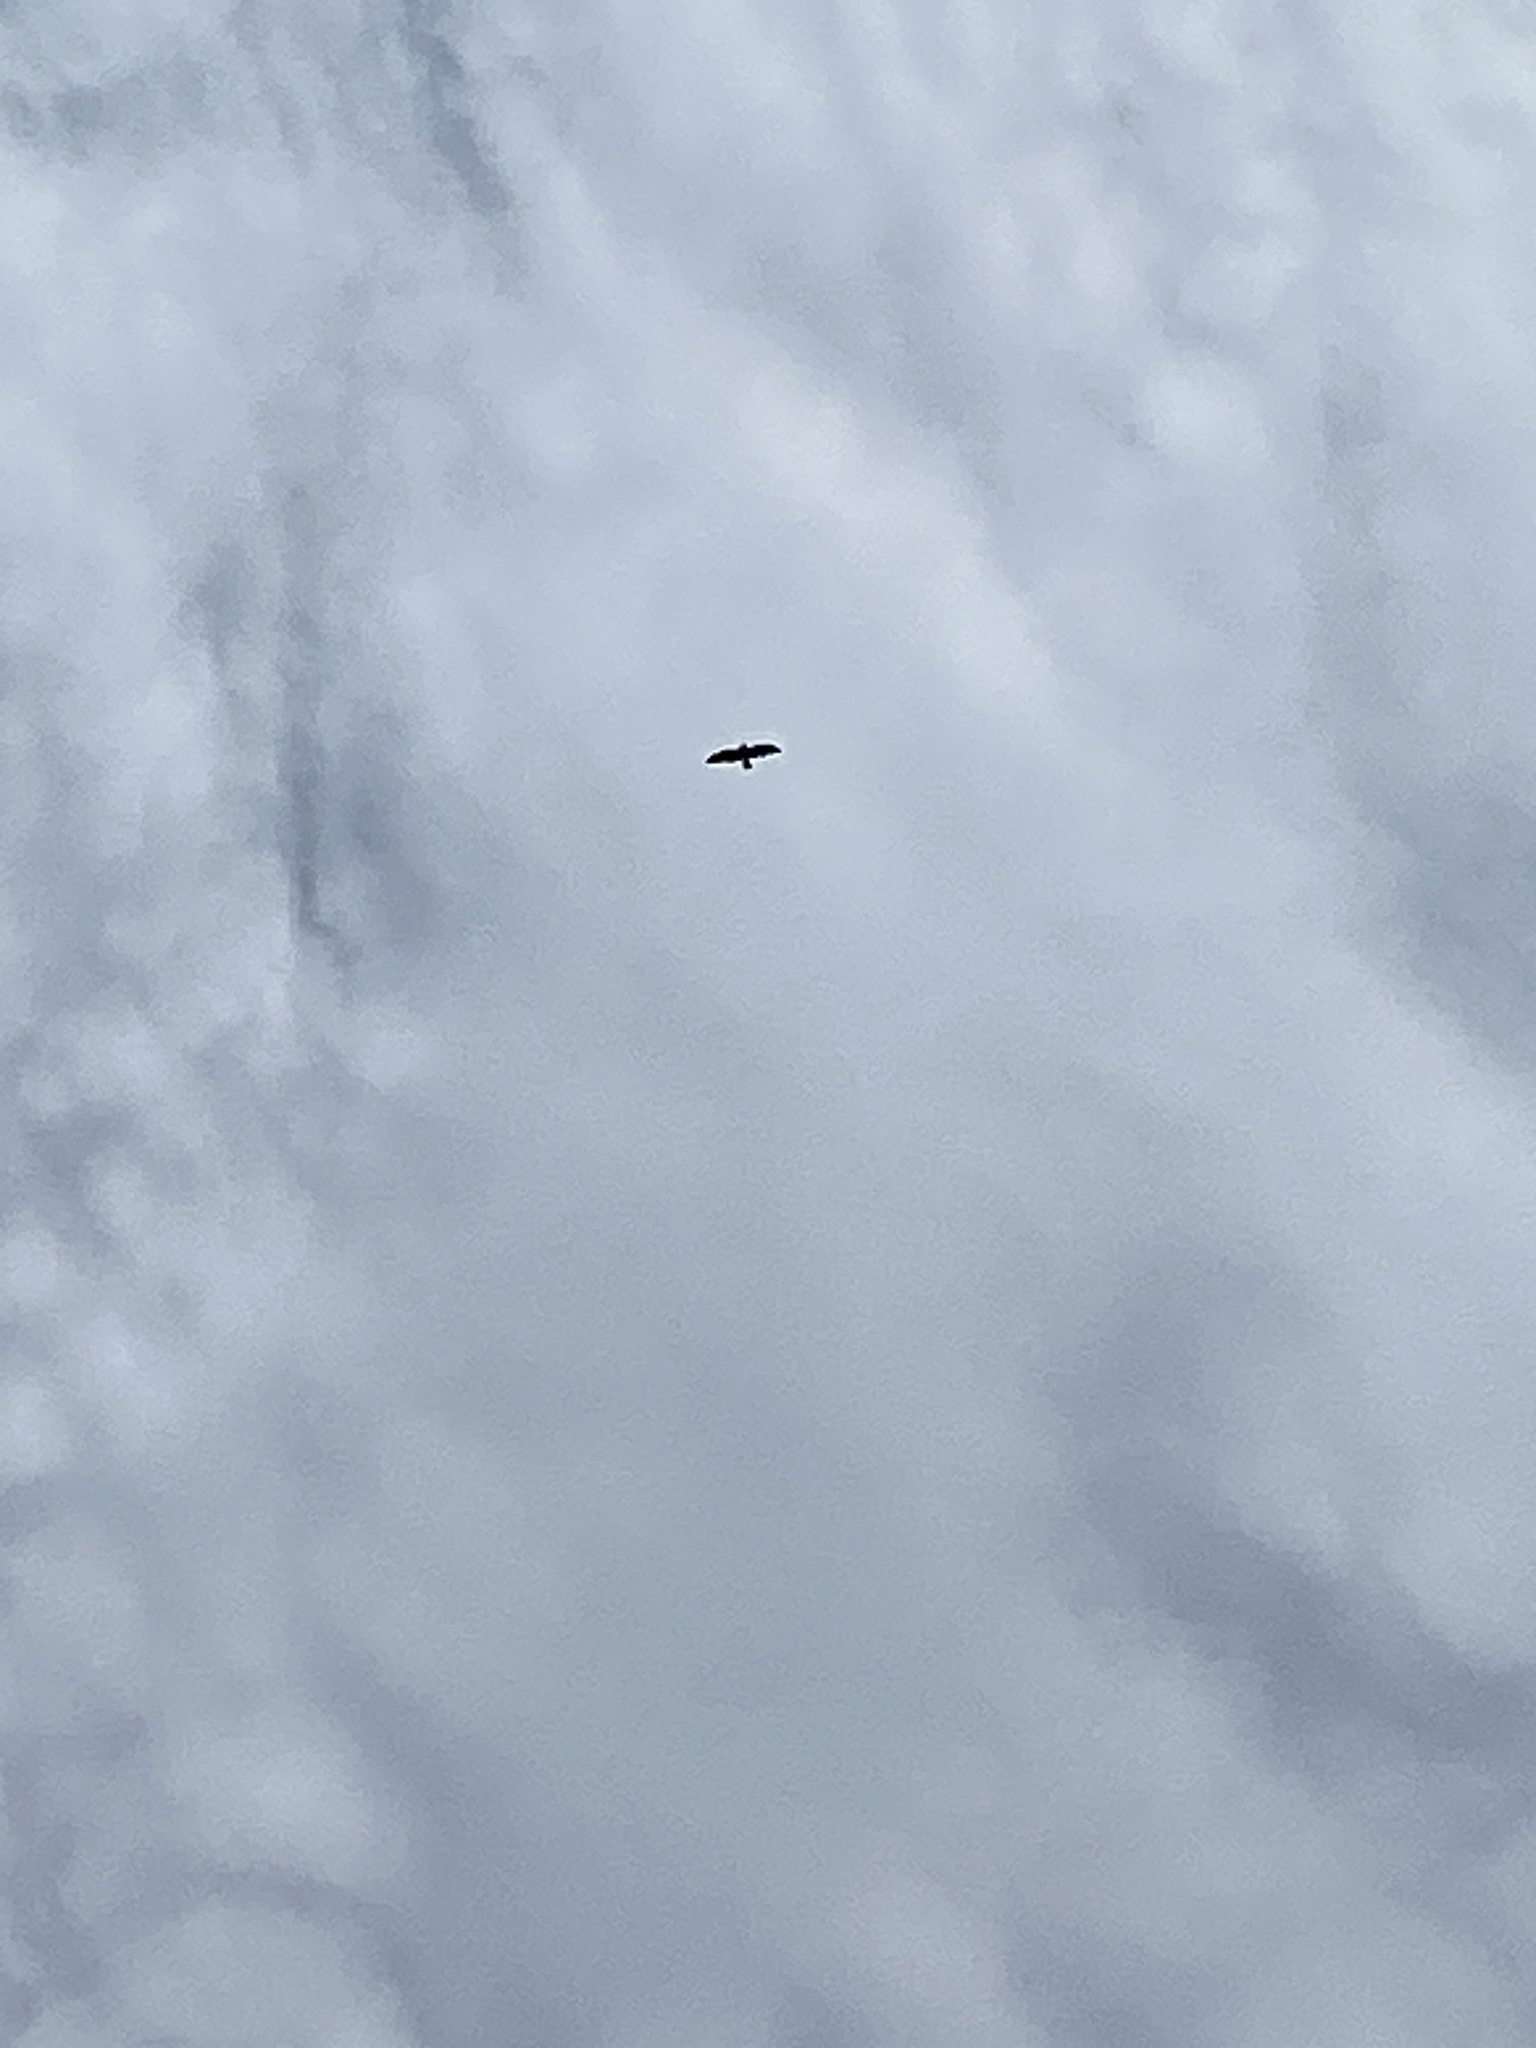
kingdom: Animalia
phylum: Chordata
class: Aves
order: Accipitriformes
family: Accipitridae
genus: Buteo
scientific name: Buteo swainsoni
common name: Swainson's hawk
